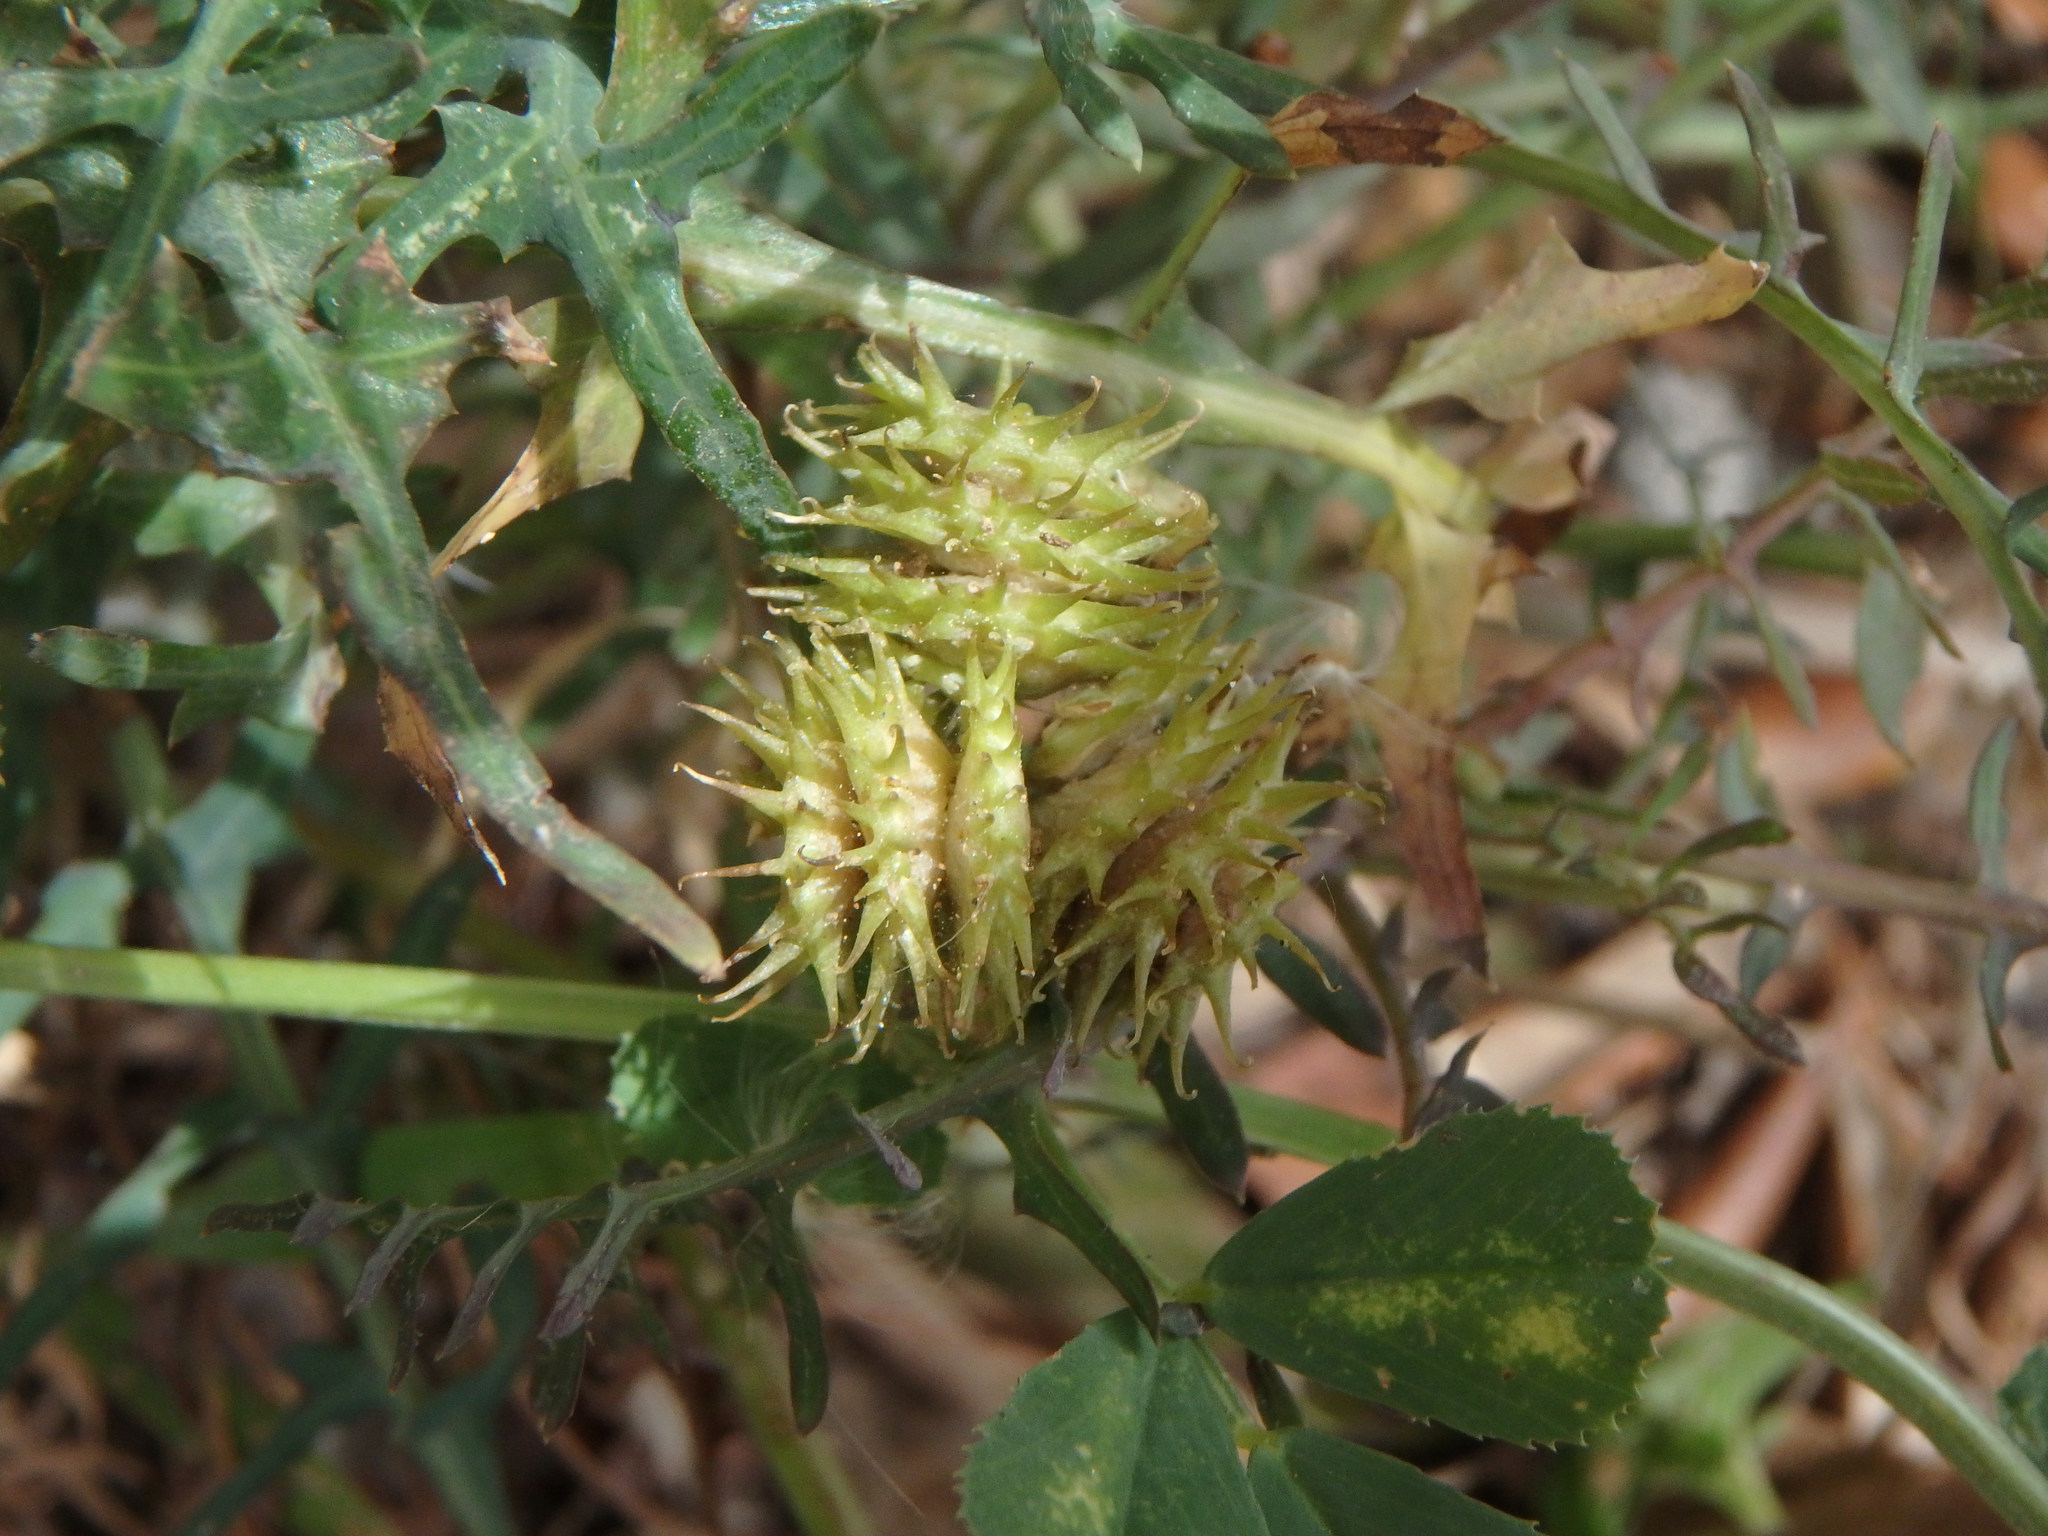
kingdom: Plantae
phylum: Tracheophyta
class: Magnoliopsida
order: Fabales
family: Fabaceae
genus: Medicago
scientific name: Medicago polymorpha
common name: Burclover
